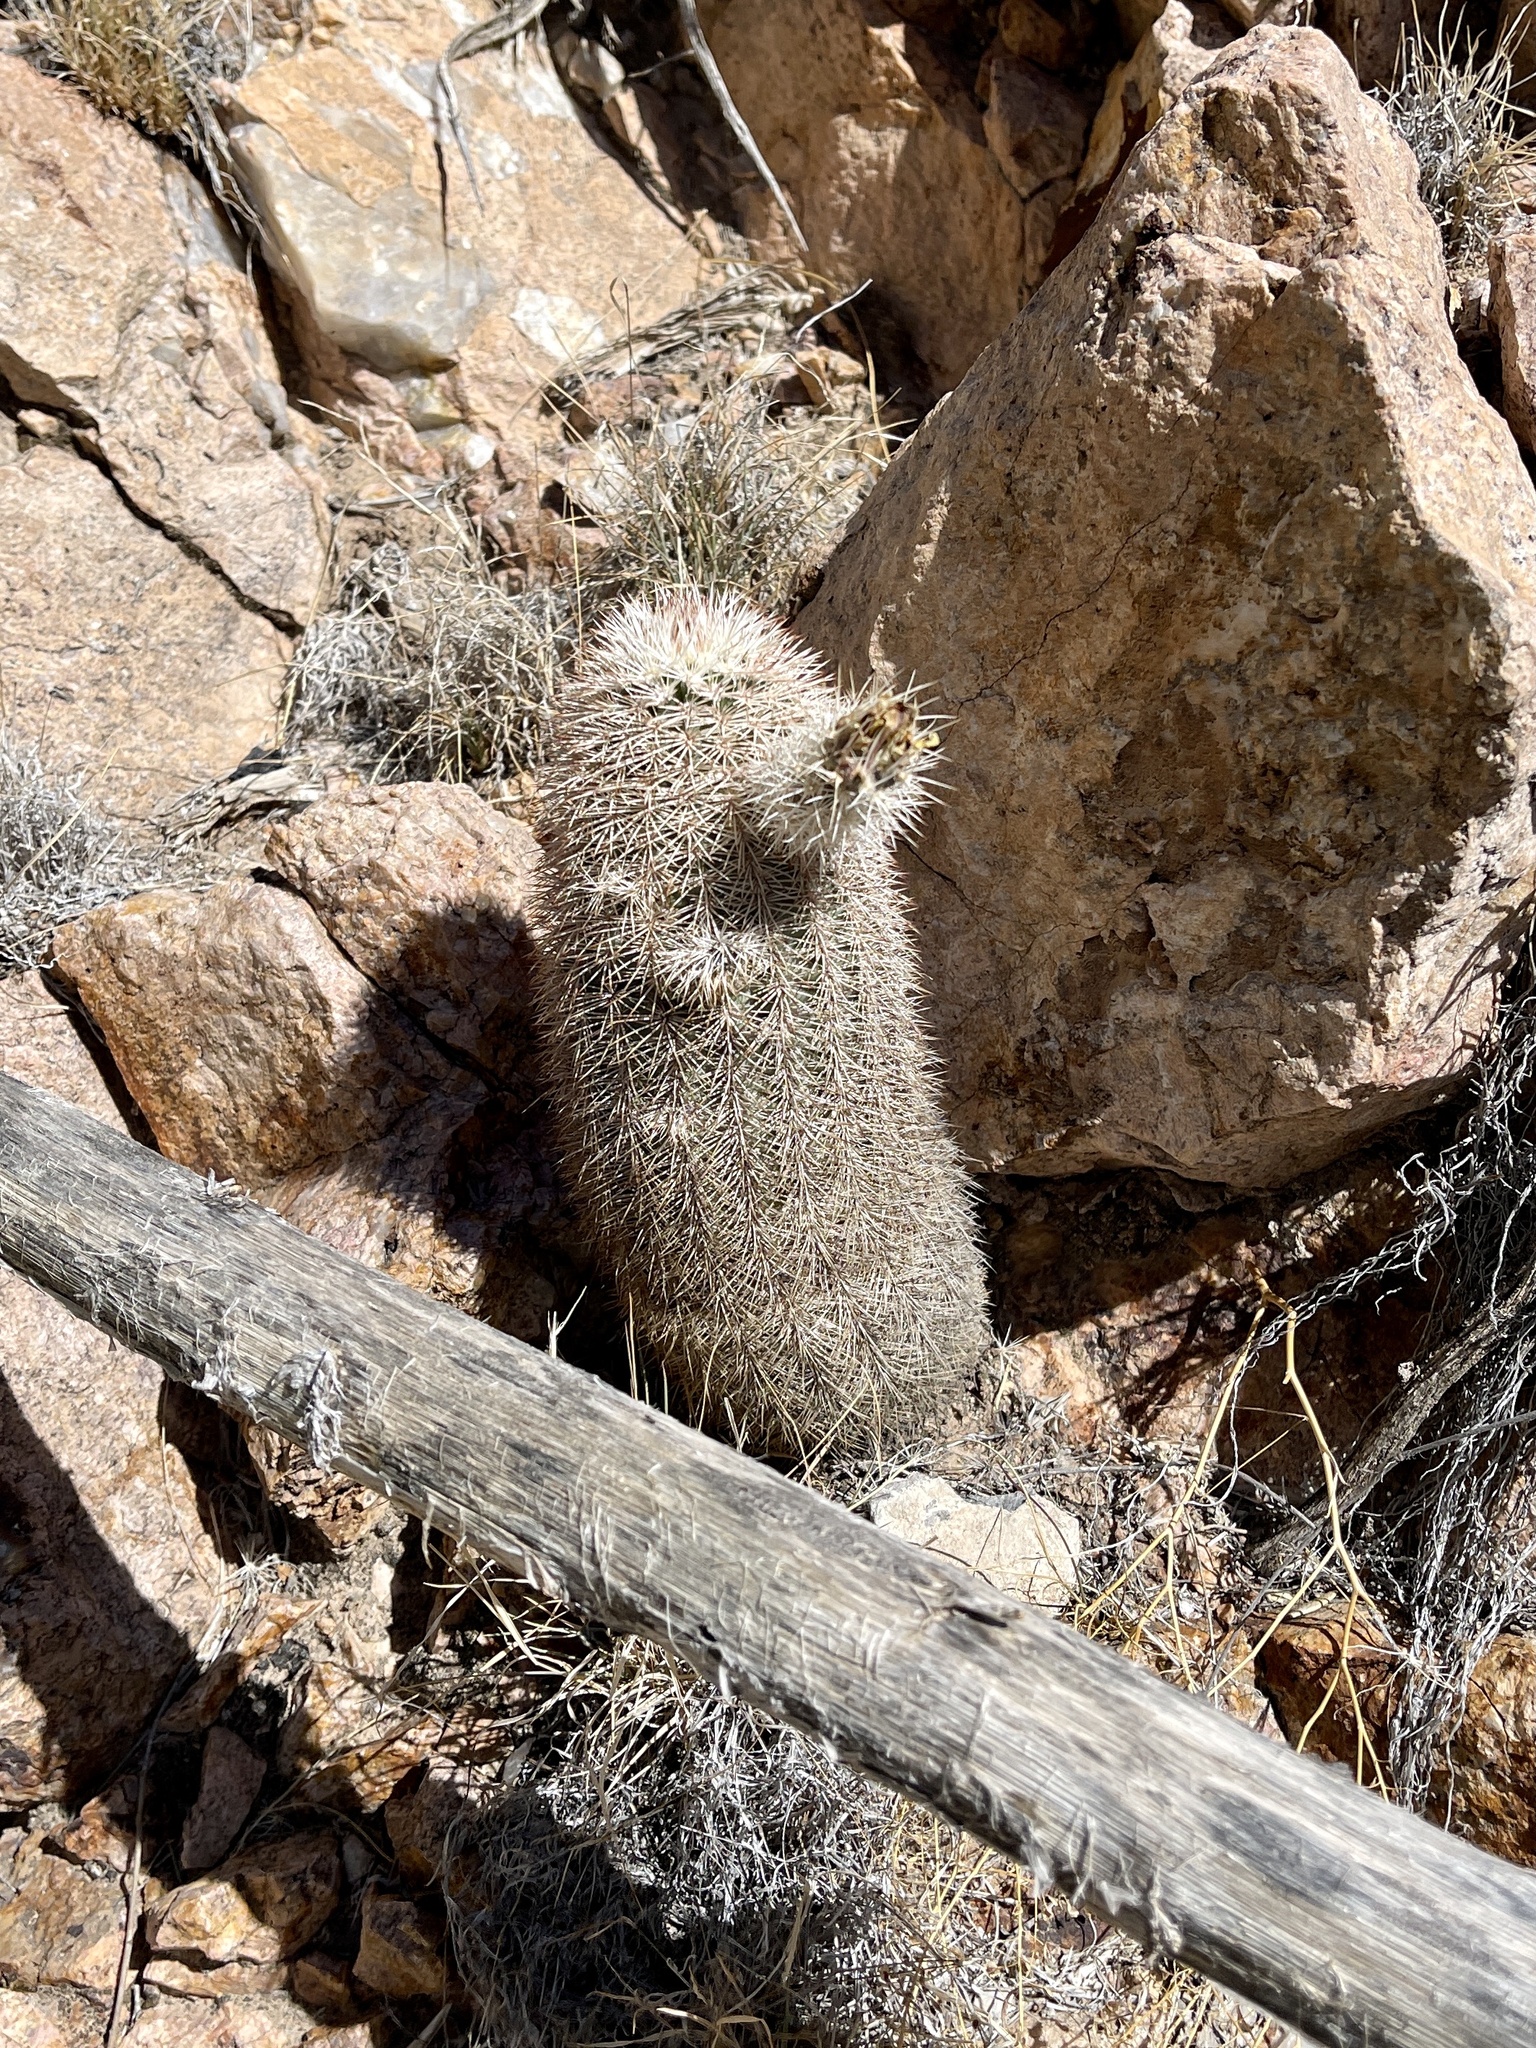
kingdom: Plantae
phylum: Tracheophyta
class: Magnoliopsida
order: Caryophyllales
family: Cactaceae
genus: Echinocereus
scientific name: Echinocereus dasyacanthus
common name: Spiny hedgehog cactus
